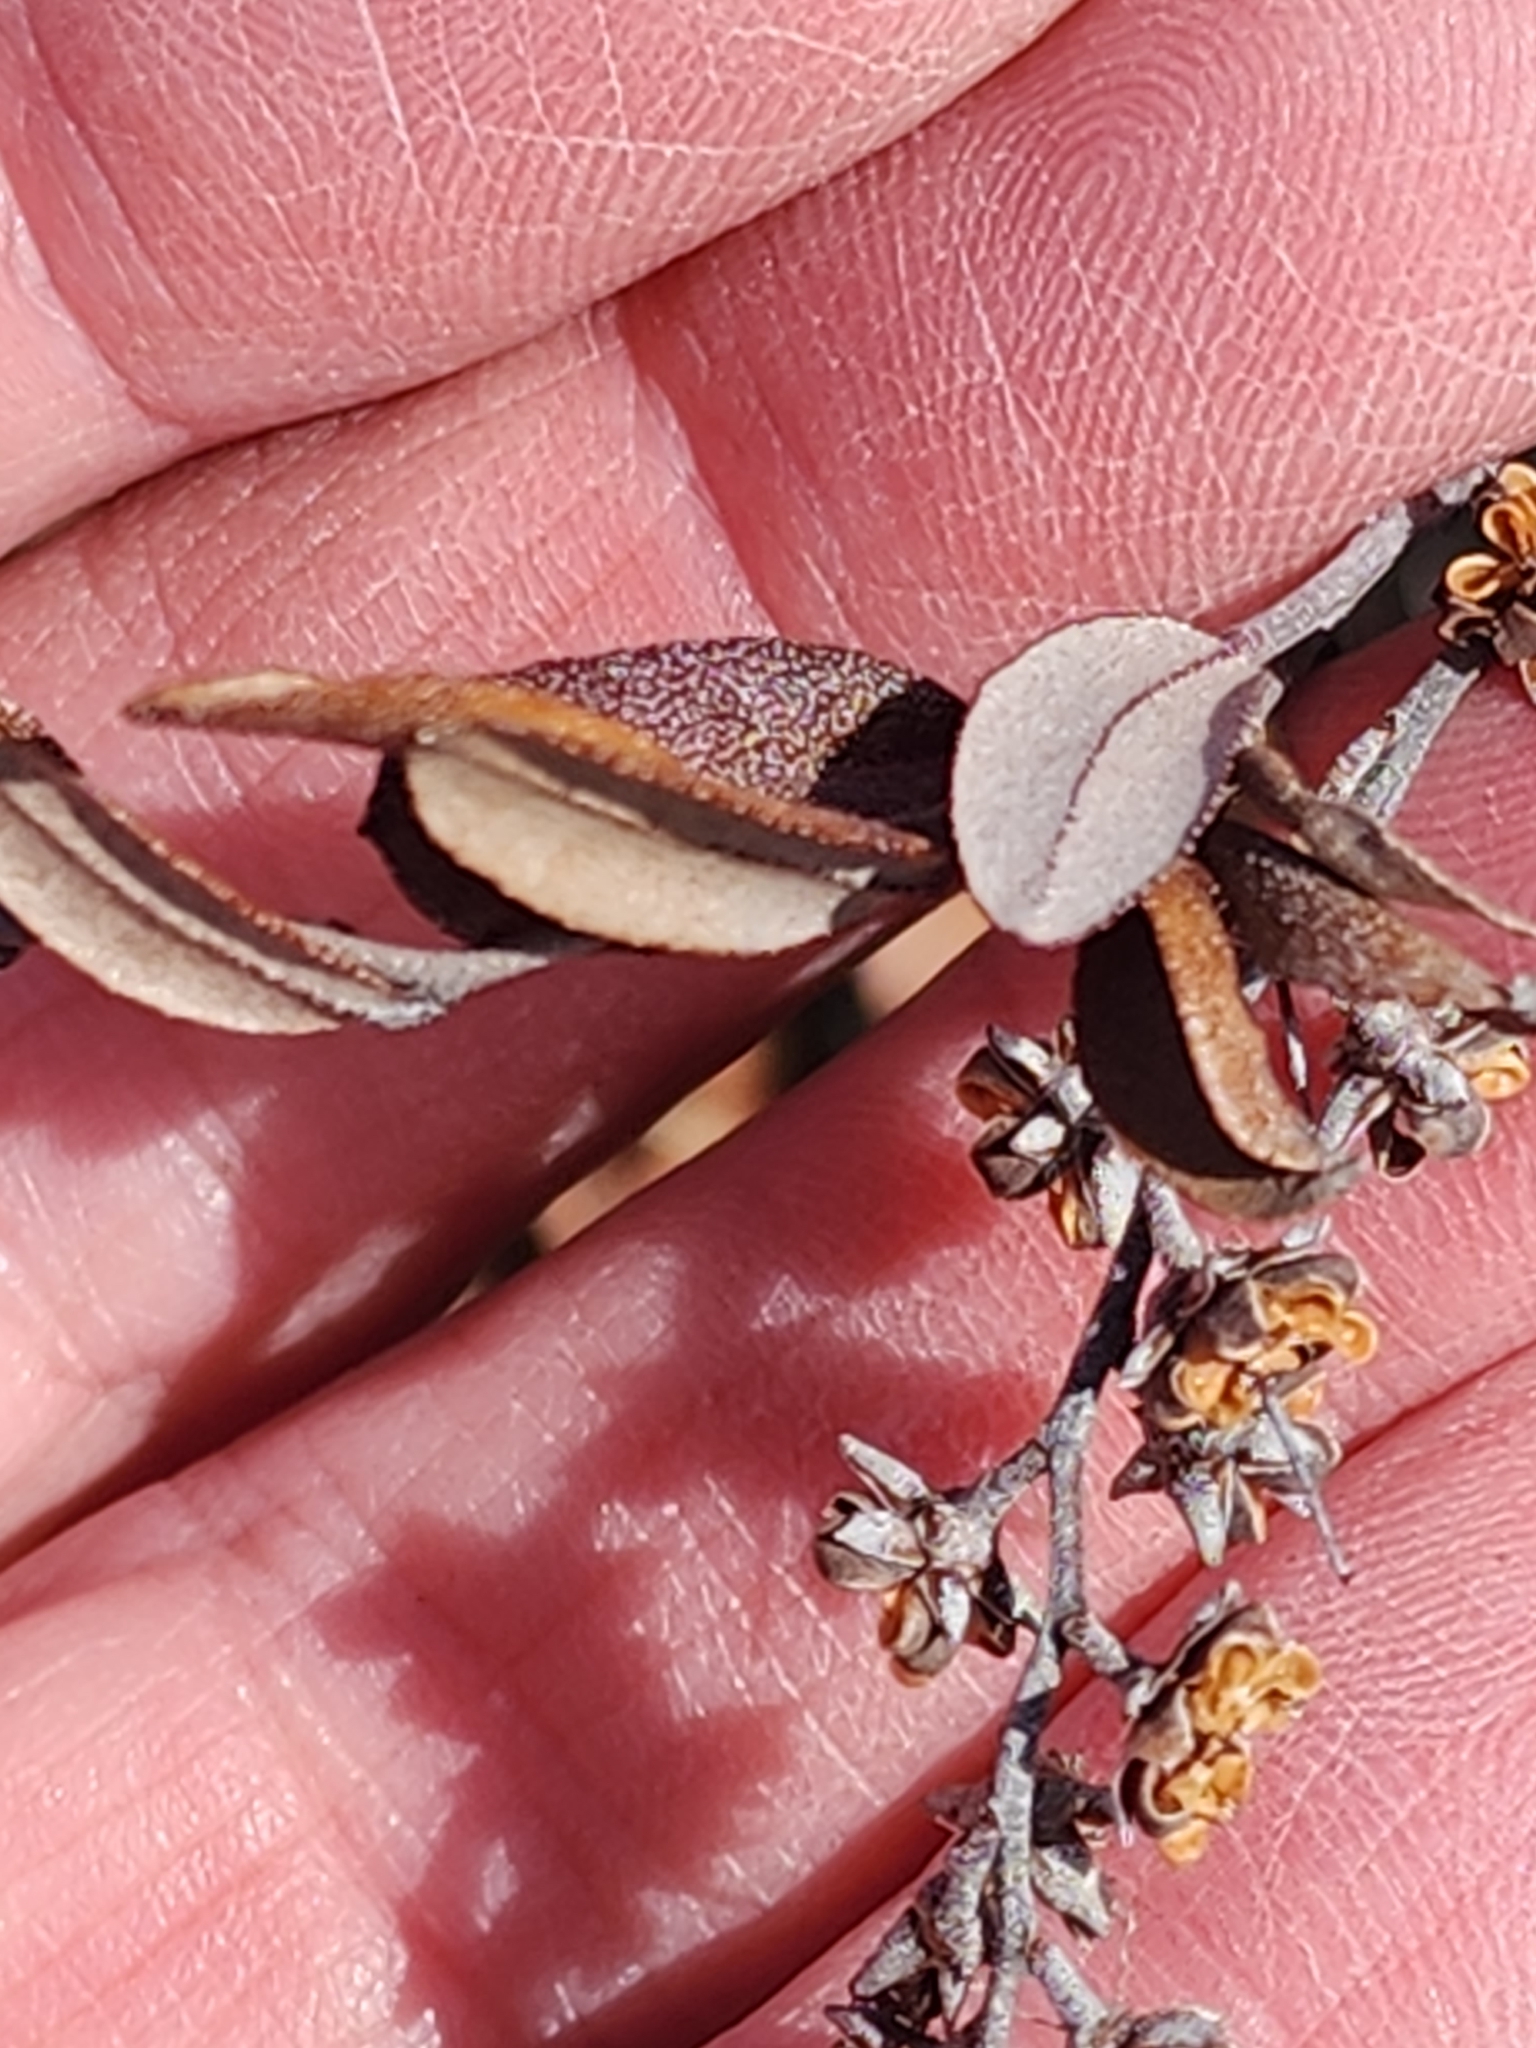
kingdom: Plantae
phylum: Tracheophyta
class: Magnoliopsida
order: Ericales
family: Ericaceae
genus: Chamaedaphne
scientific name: Chamaedaphne calyculata
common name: Leatherleaf
